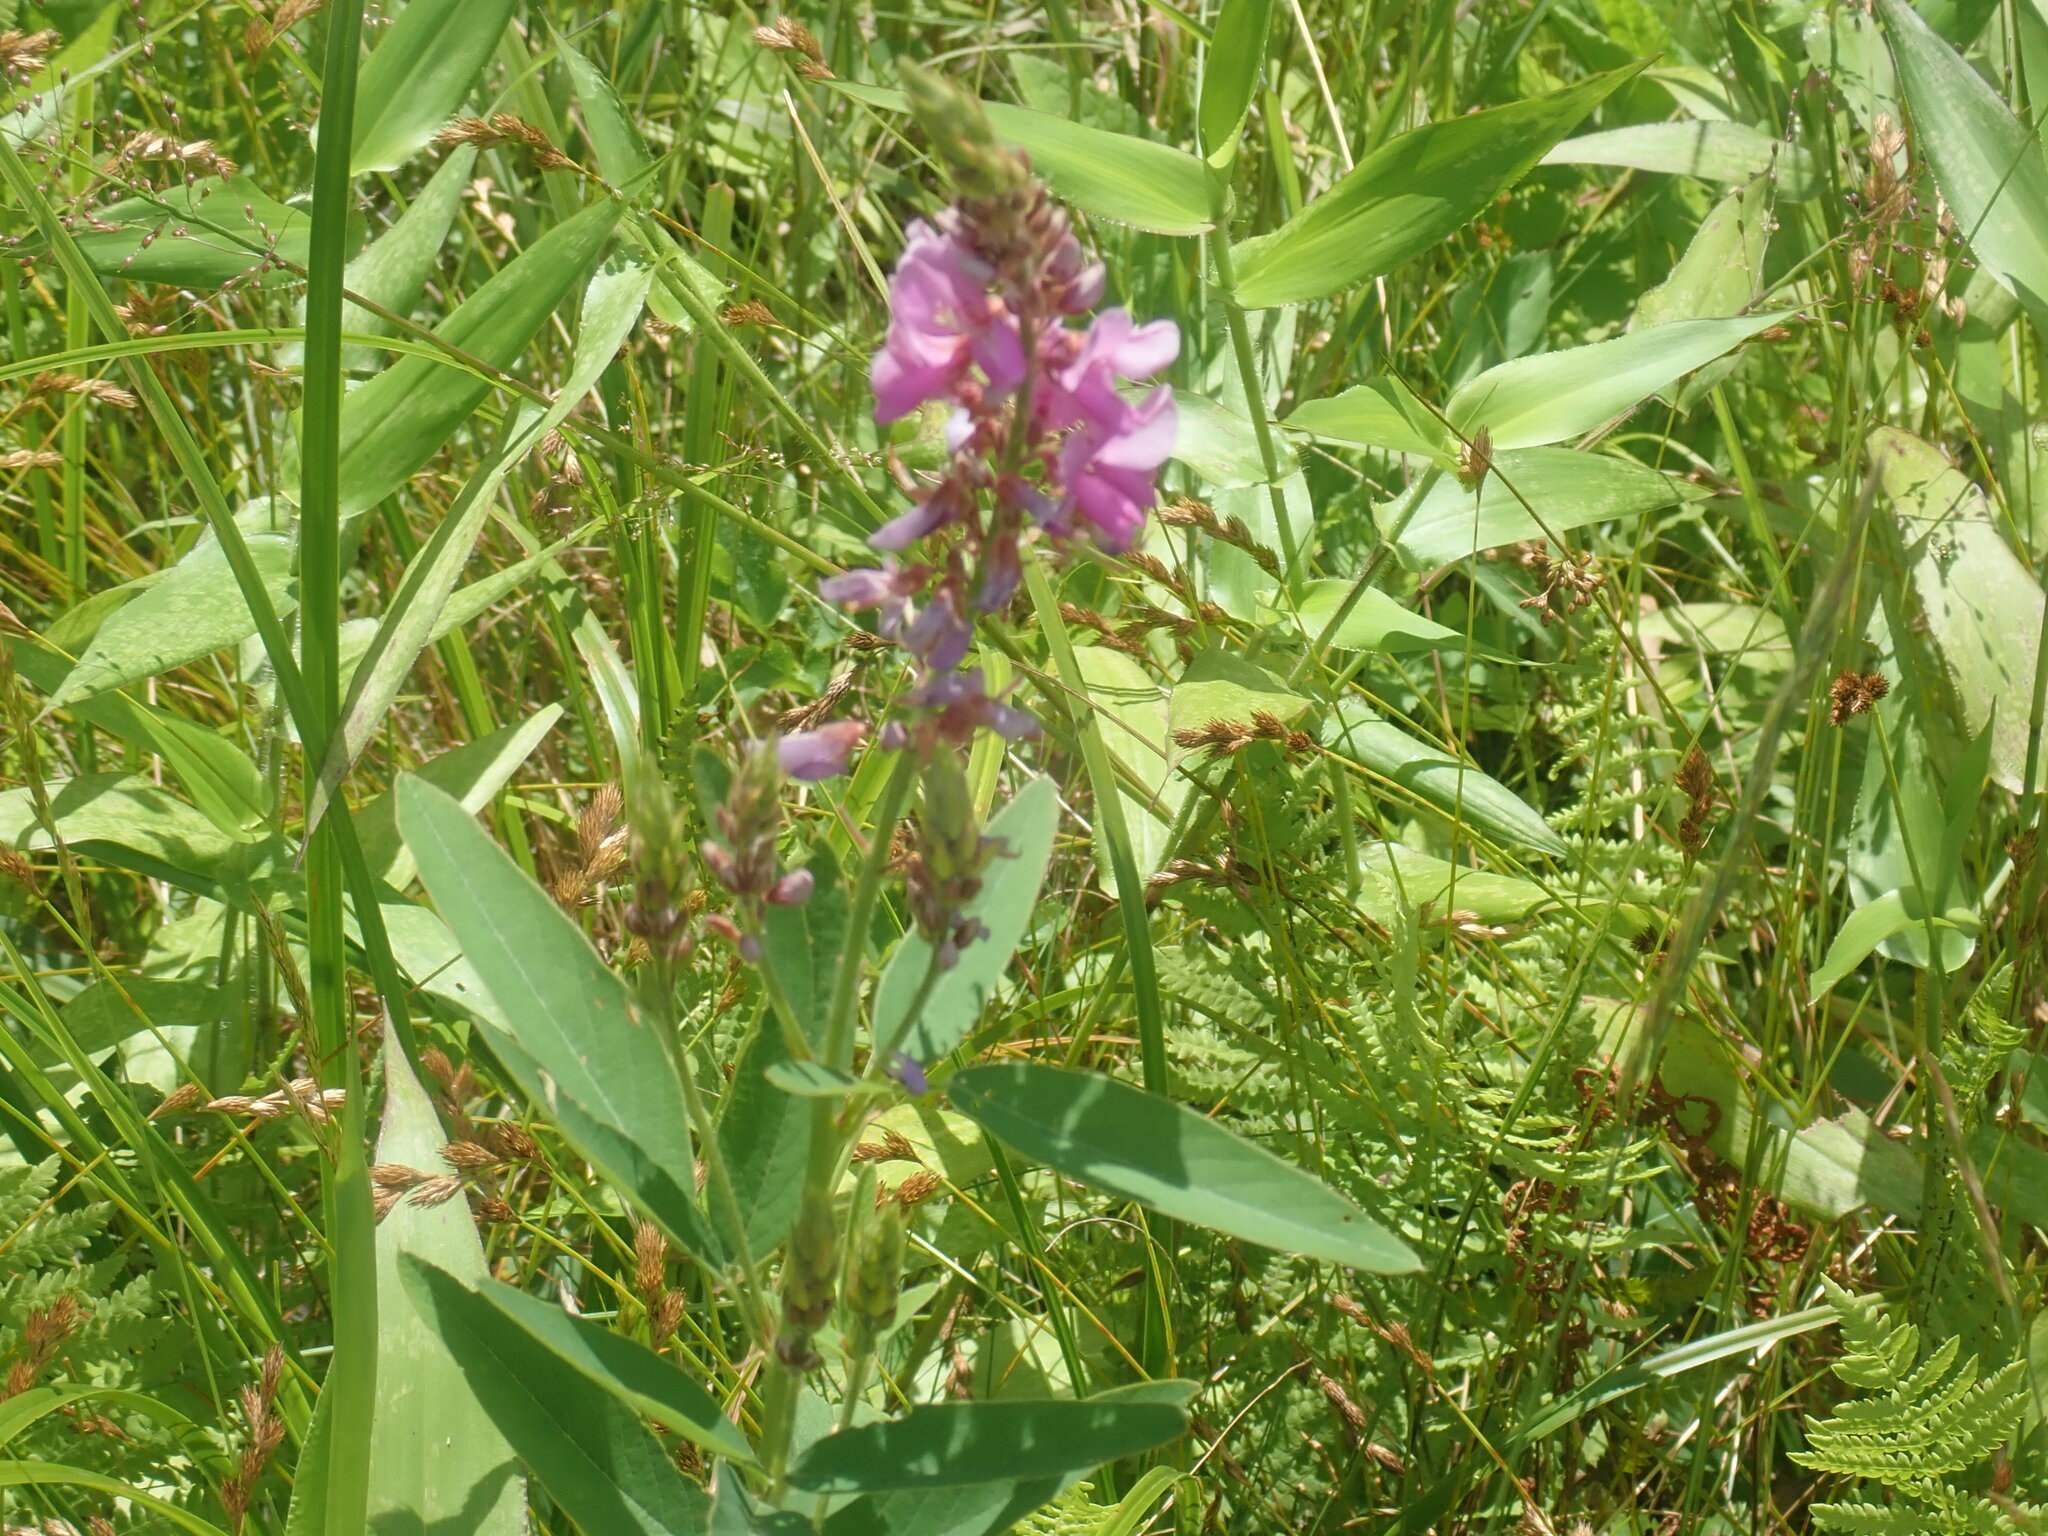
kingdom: Plantae
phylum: Tracheophyta
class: Magnoliopsida
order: Fabales
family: Fabaceae
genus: Desmodium
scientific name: Desmodium canadense
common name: Canada tick-trefoil
